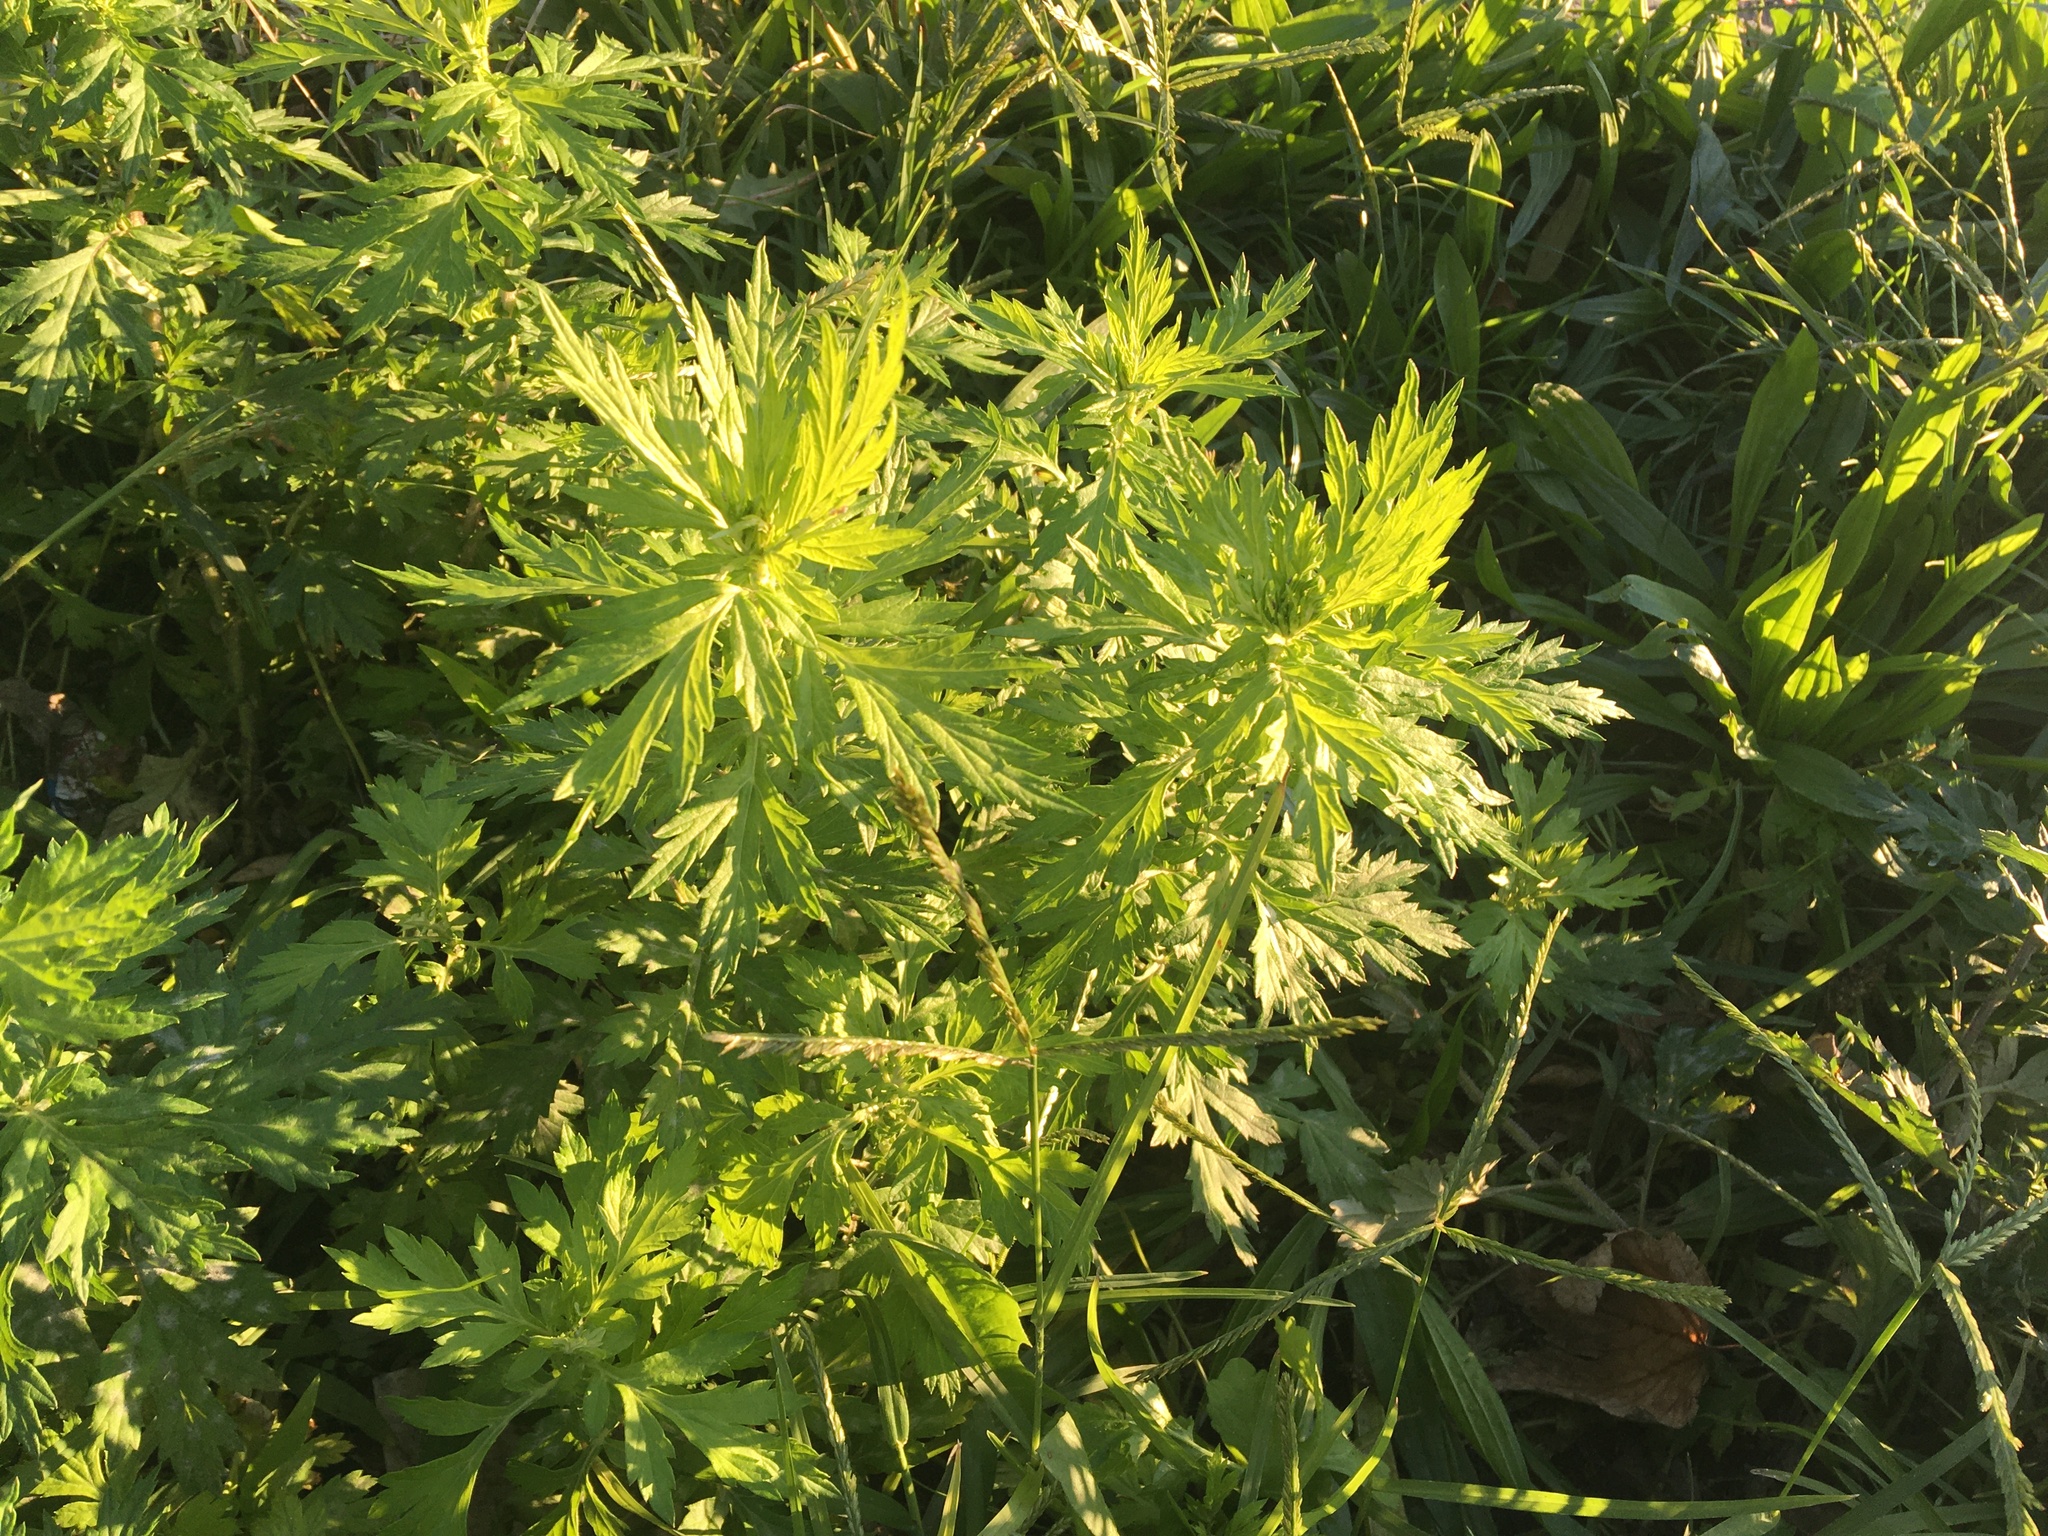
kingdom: Plantae
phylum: Tracheophyta
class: Magnoliopsida
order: Asterales
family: Asteraceae
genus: Artemisia
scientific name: Artemisia vulgaris
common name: Mugwort
